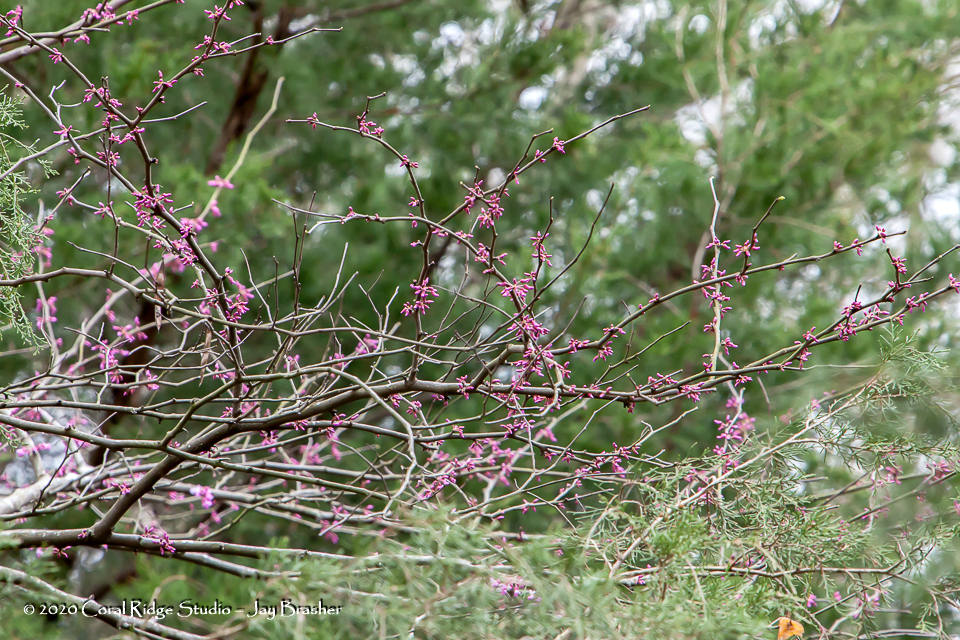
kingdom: Plantae
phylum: Tracheophyta
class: Magnoliopsida
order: Fabales
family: Fabaceae
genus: Cercis
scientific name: Cercis canadensis
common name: Eastern redbud
